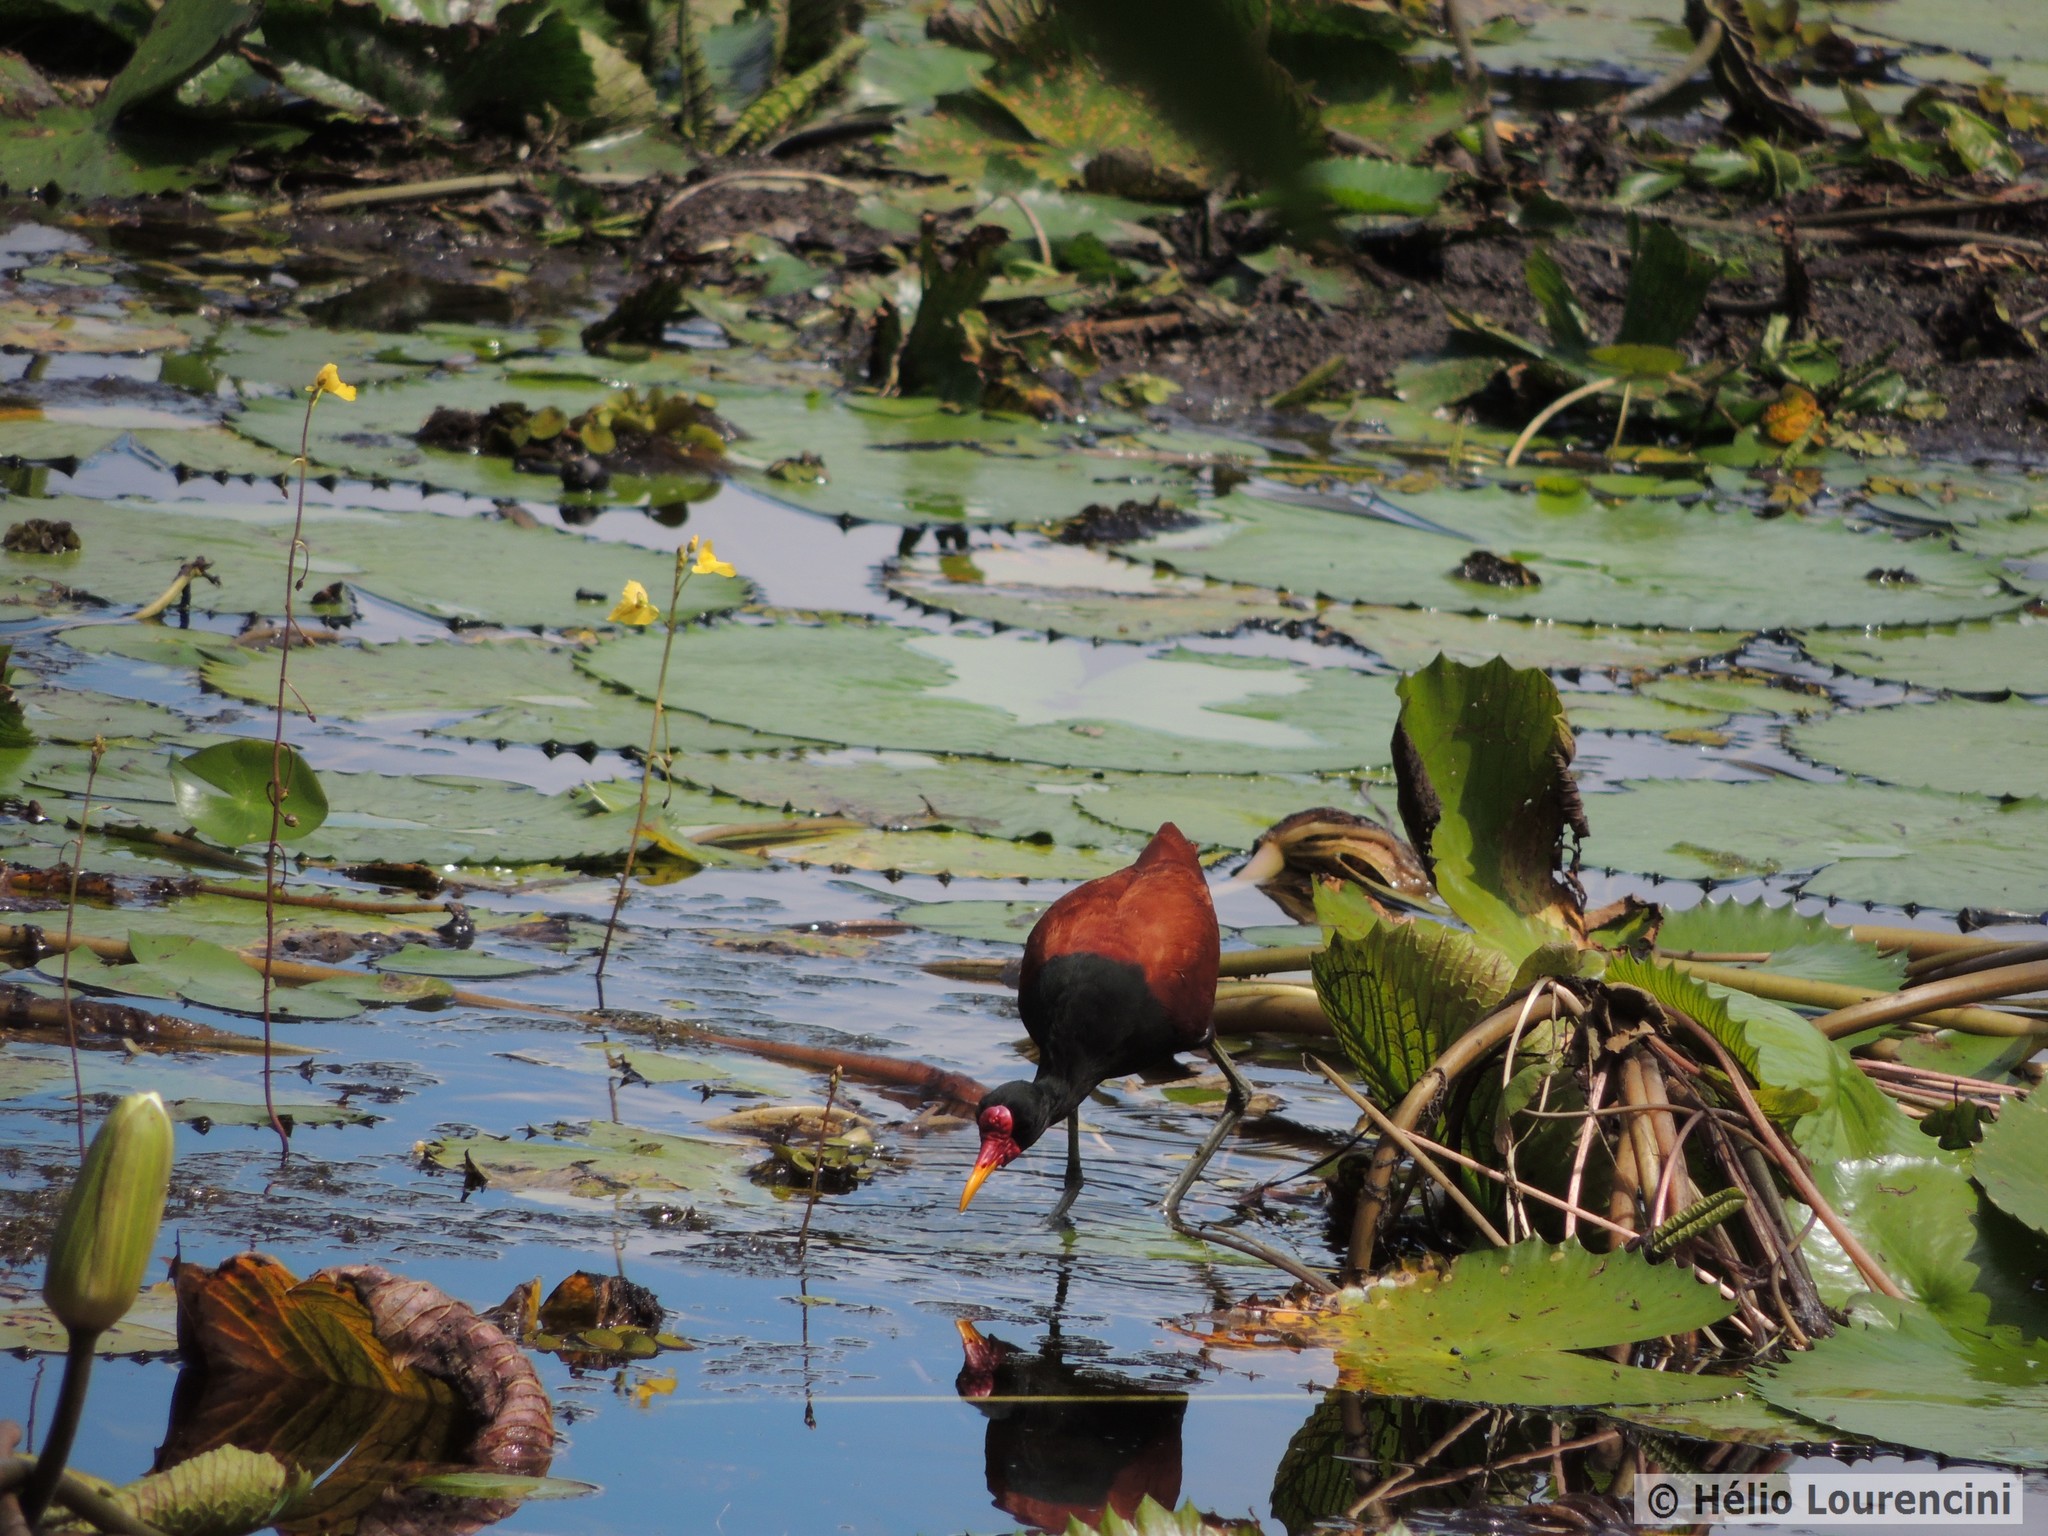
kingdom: Animalia
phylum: Chordata
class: Aves
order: Charadriiformes
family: Jacanidae
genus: Jacana
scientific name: Jacana jacana
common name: Wattled jacana
